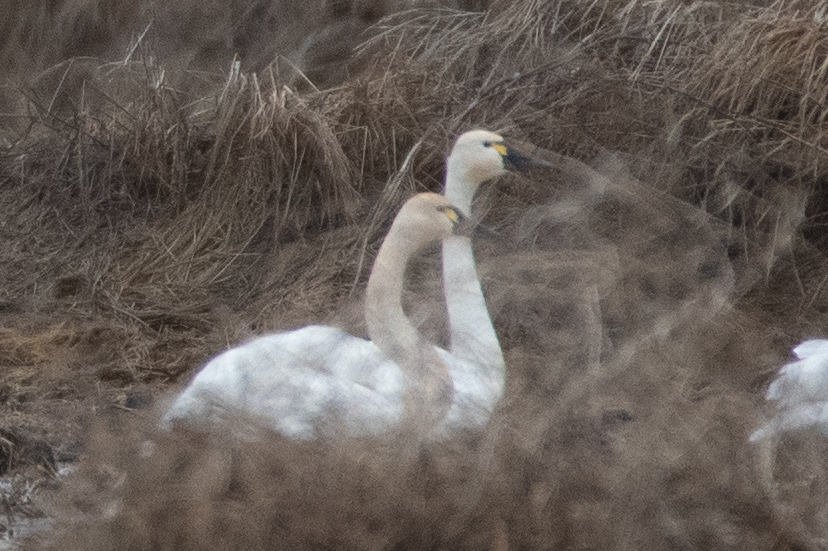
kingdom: Animalia
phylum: Chordata
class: Aves
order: Anseriformes
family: Anatidae
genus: Cygnus
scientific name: Cygnus columbianus
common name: Tundra swan
